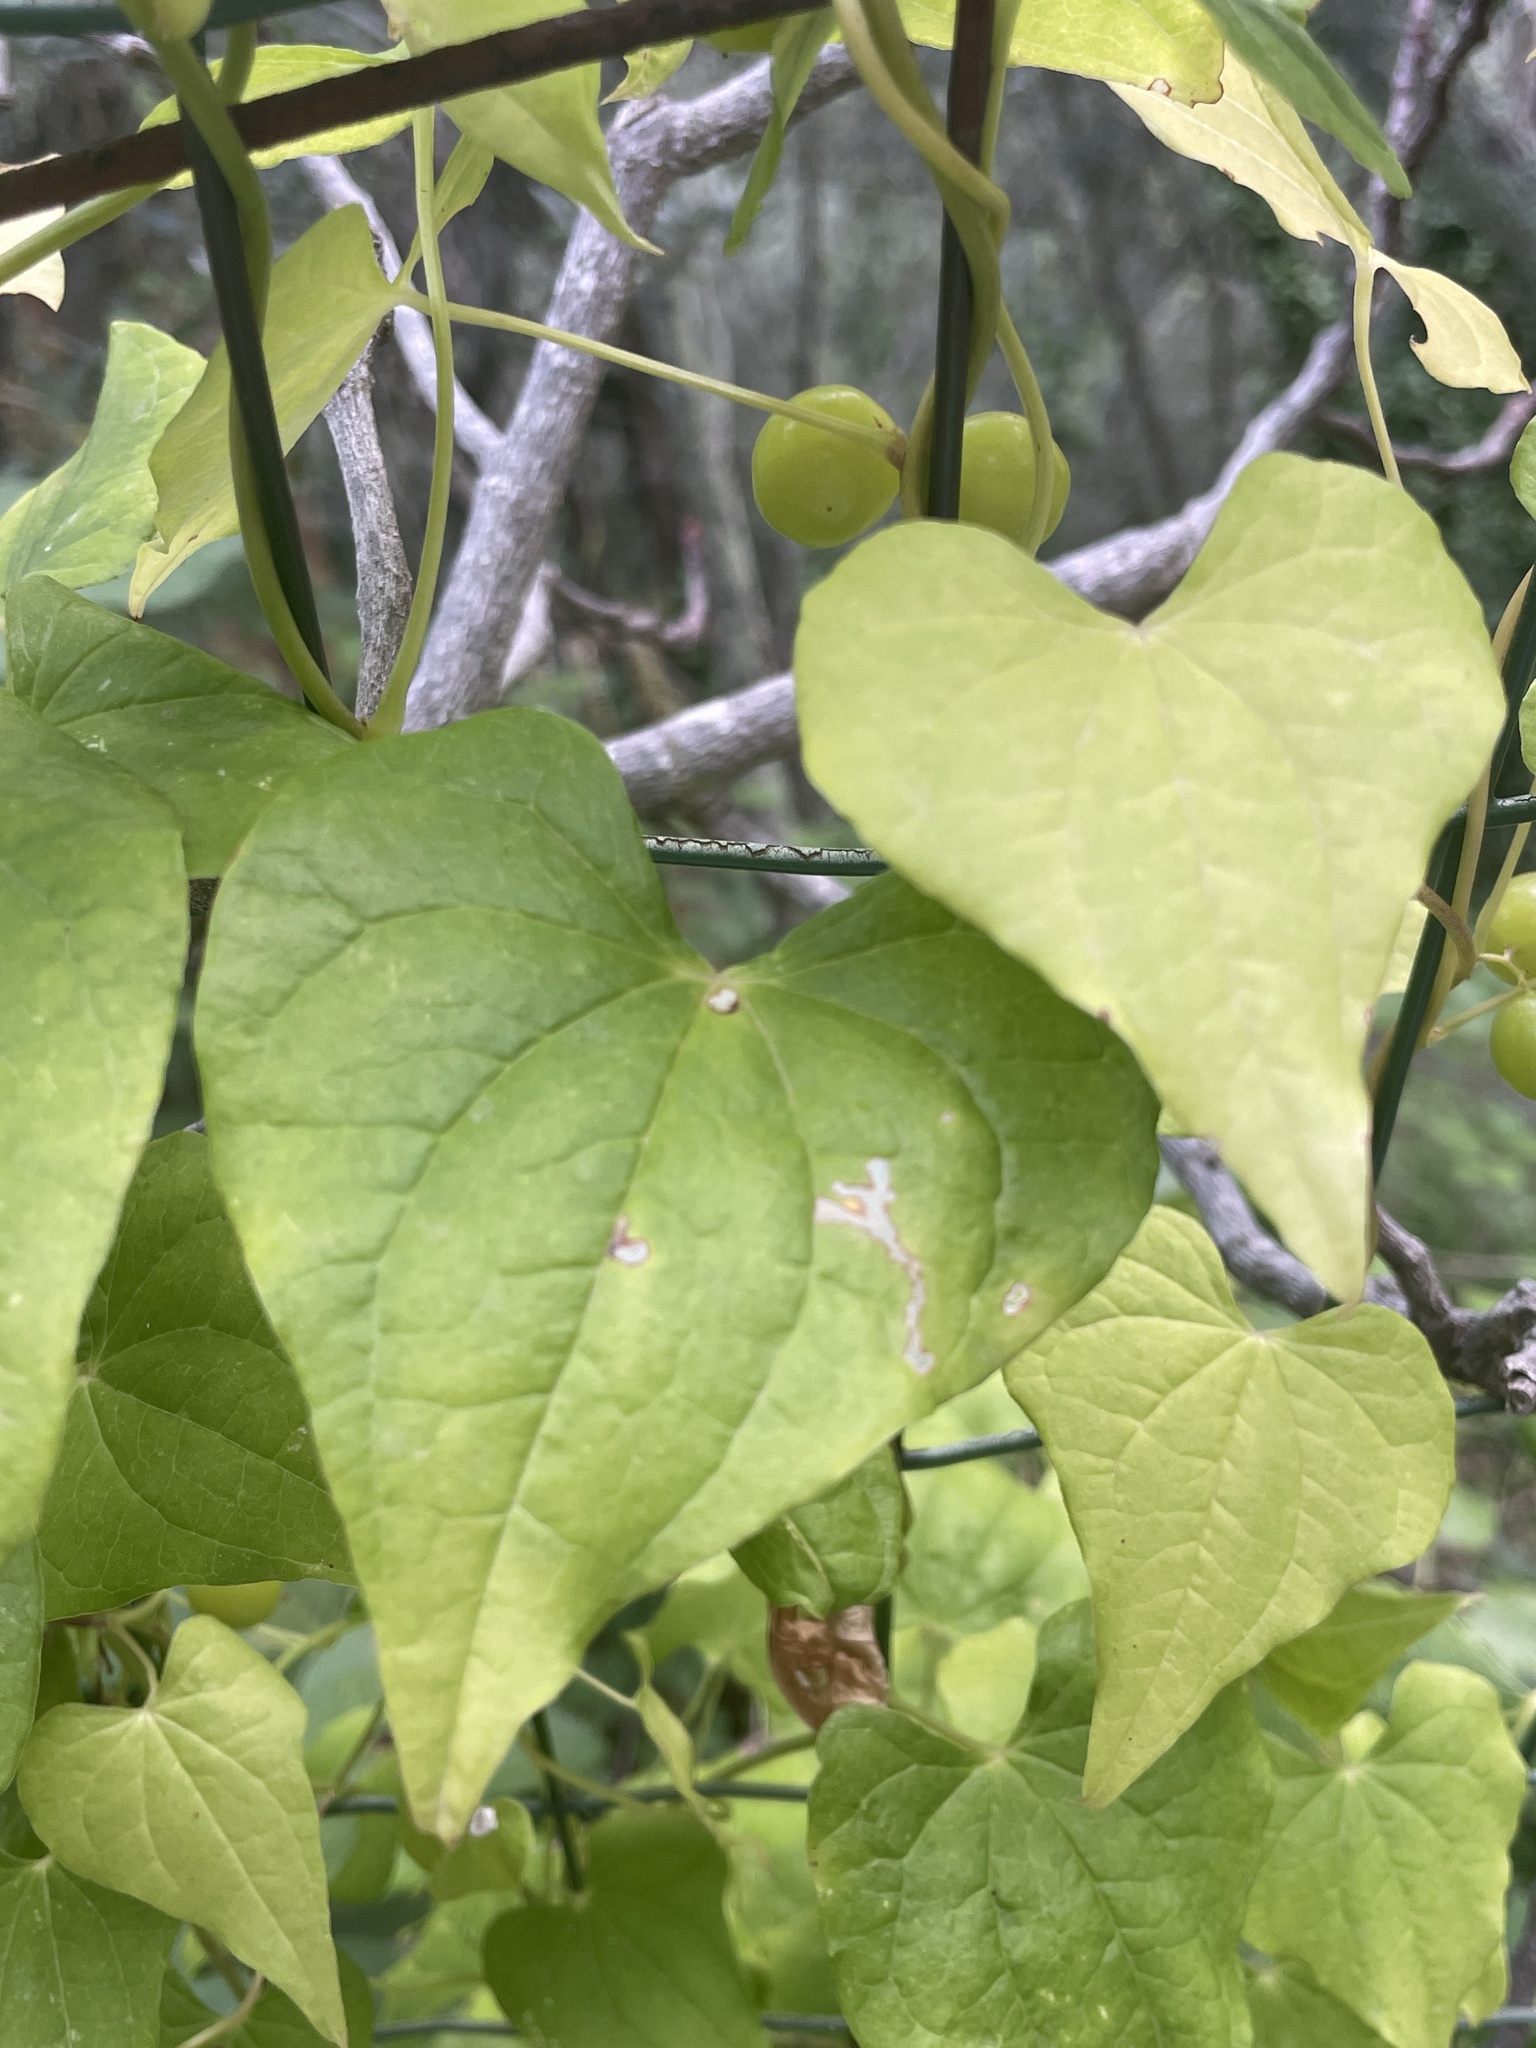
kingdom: Plantae
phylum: Tracheophyta
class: Liliopsida
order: Dioscoreales
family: Dioscoreaceae
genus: Dioscorea
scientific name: Dioscorea communis
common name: Black-bindweed
